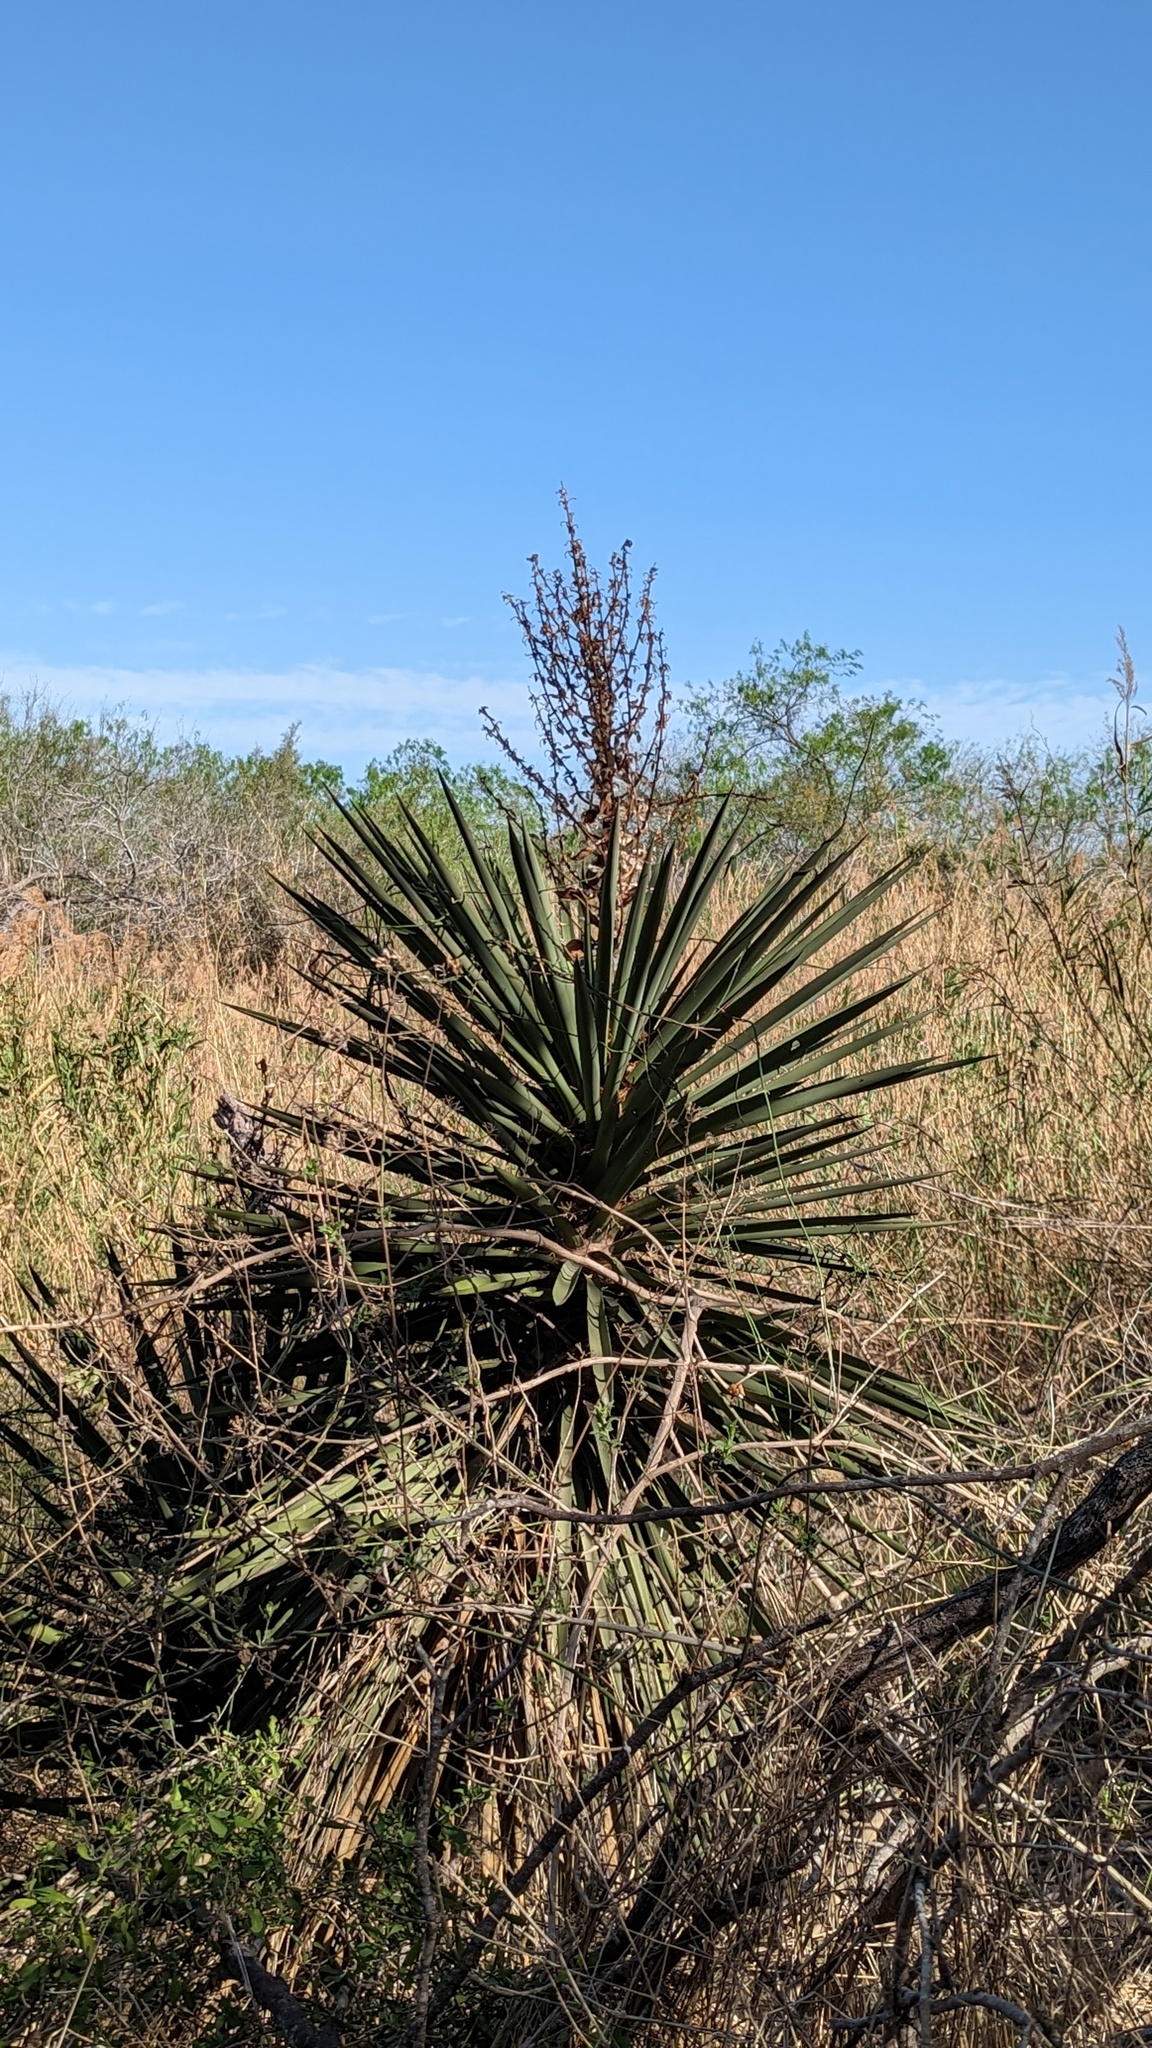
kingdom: Plantae
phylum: Tracheophyta
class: Liliopsida
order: Asparagales
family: Asparagaceae
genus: Yucca
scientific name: Yucca treculiana
